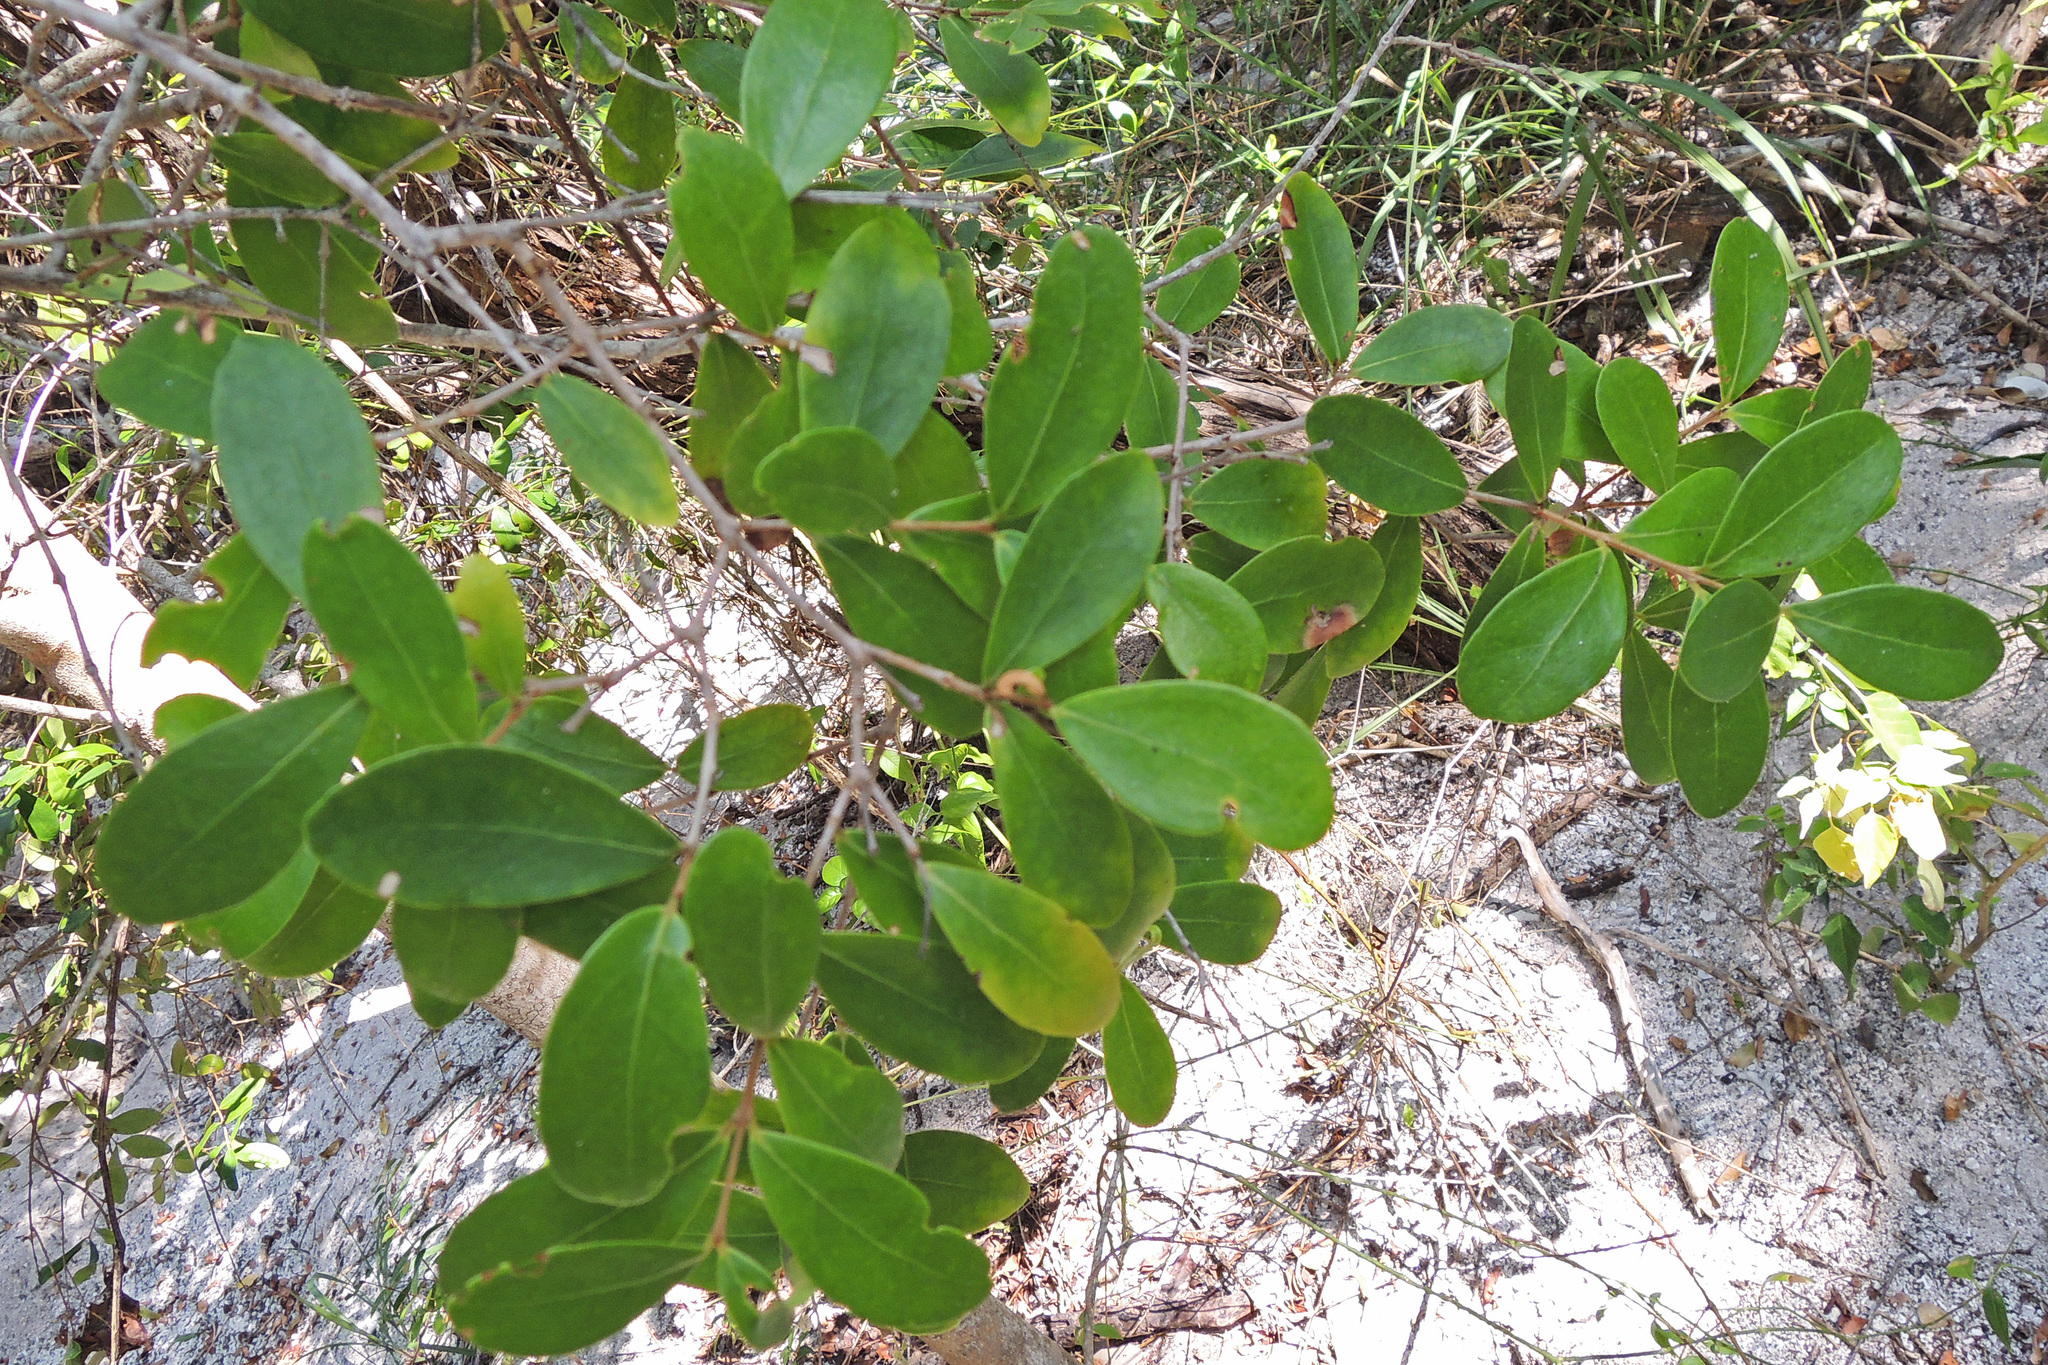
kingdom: Plantae
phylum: Tracheophyta
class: Magnoliopsida
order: Myrtales
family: Myrtaceae
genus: Eugenia
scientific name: Eugenia foetida
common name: White wattling
